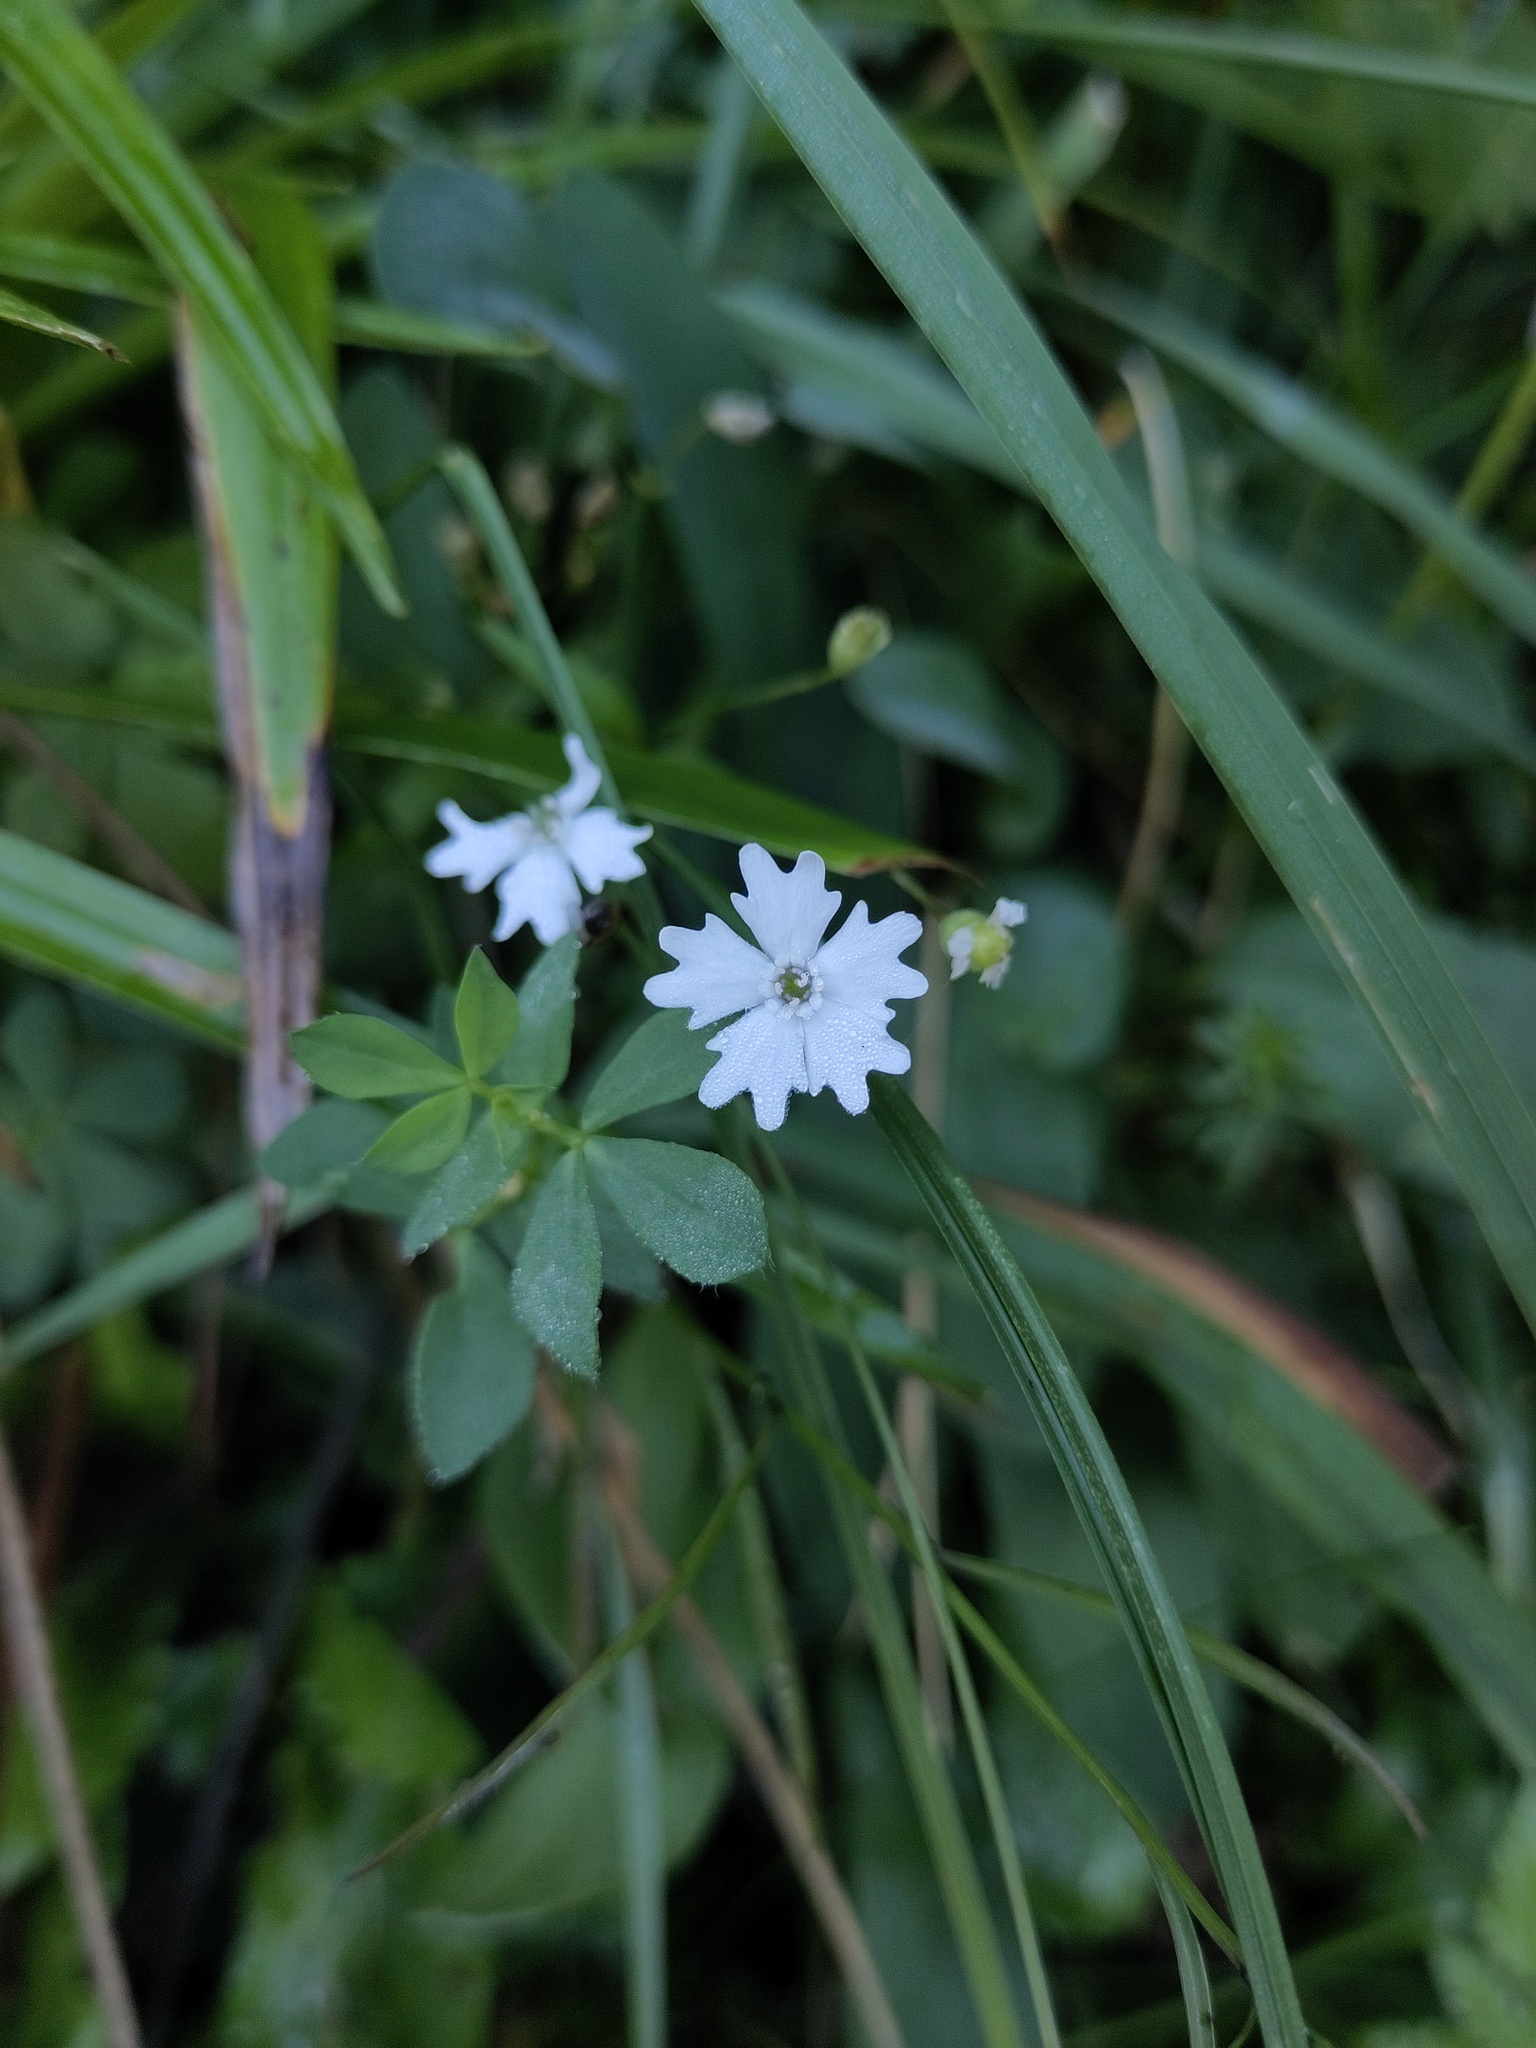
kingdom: Plantae
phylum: Tracheophyta
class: Magnoliopsida
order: Caryophyllales
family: Caryophyllaceae
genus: Heliosperma
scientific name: Heliosperma alpestre
